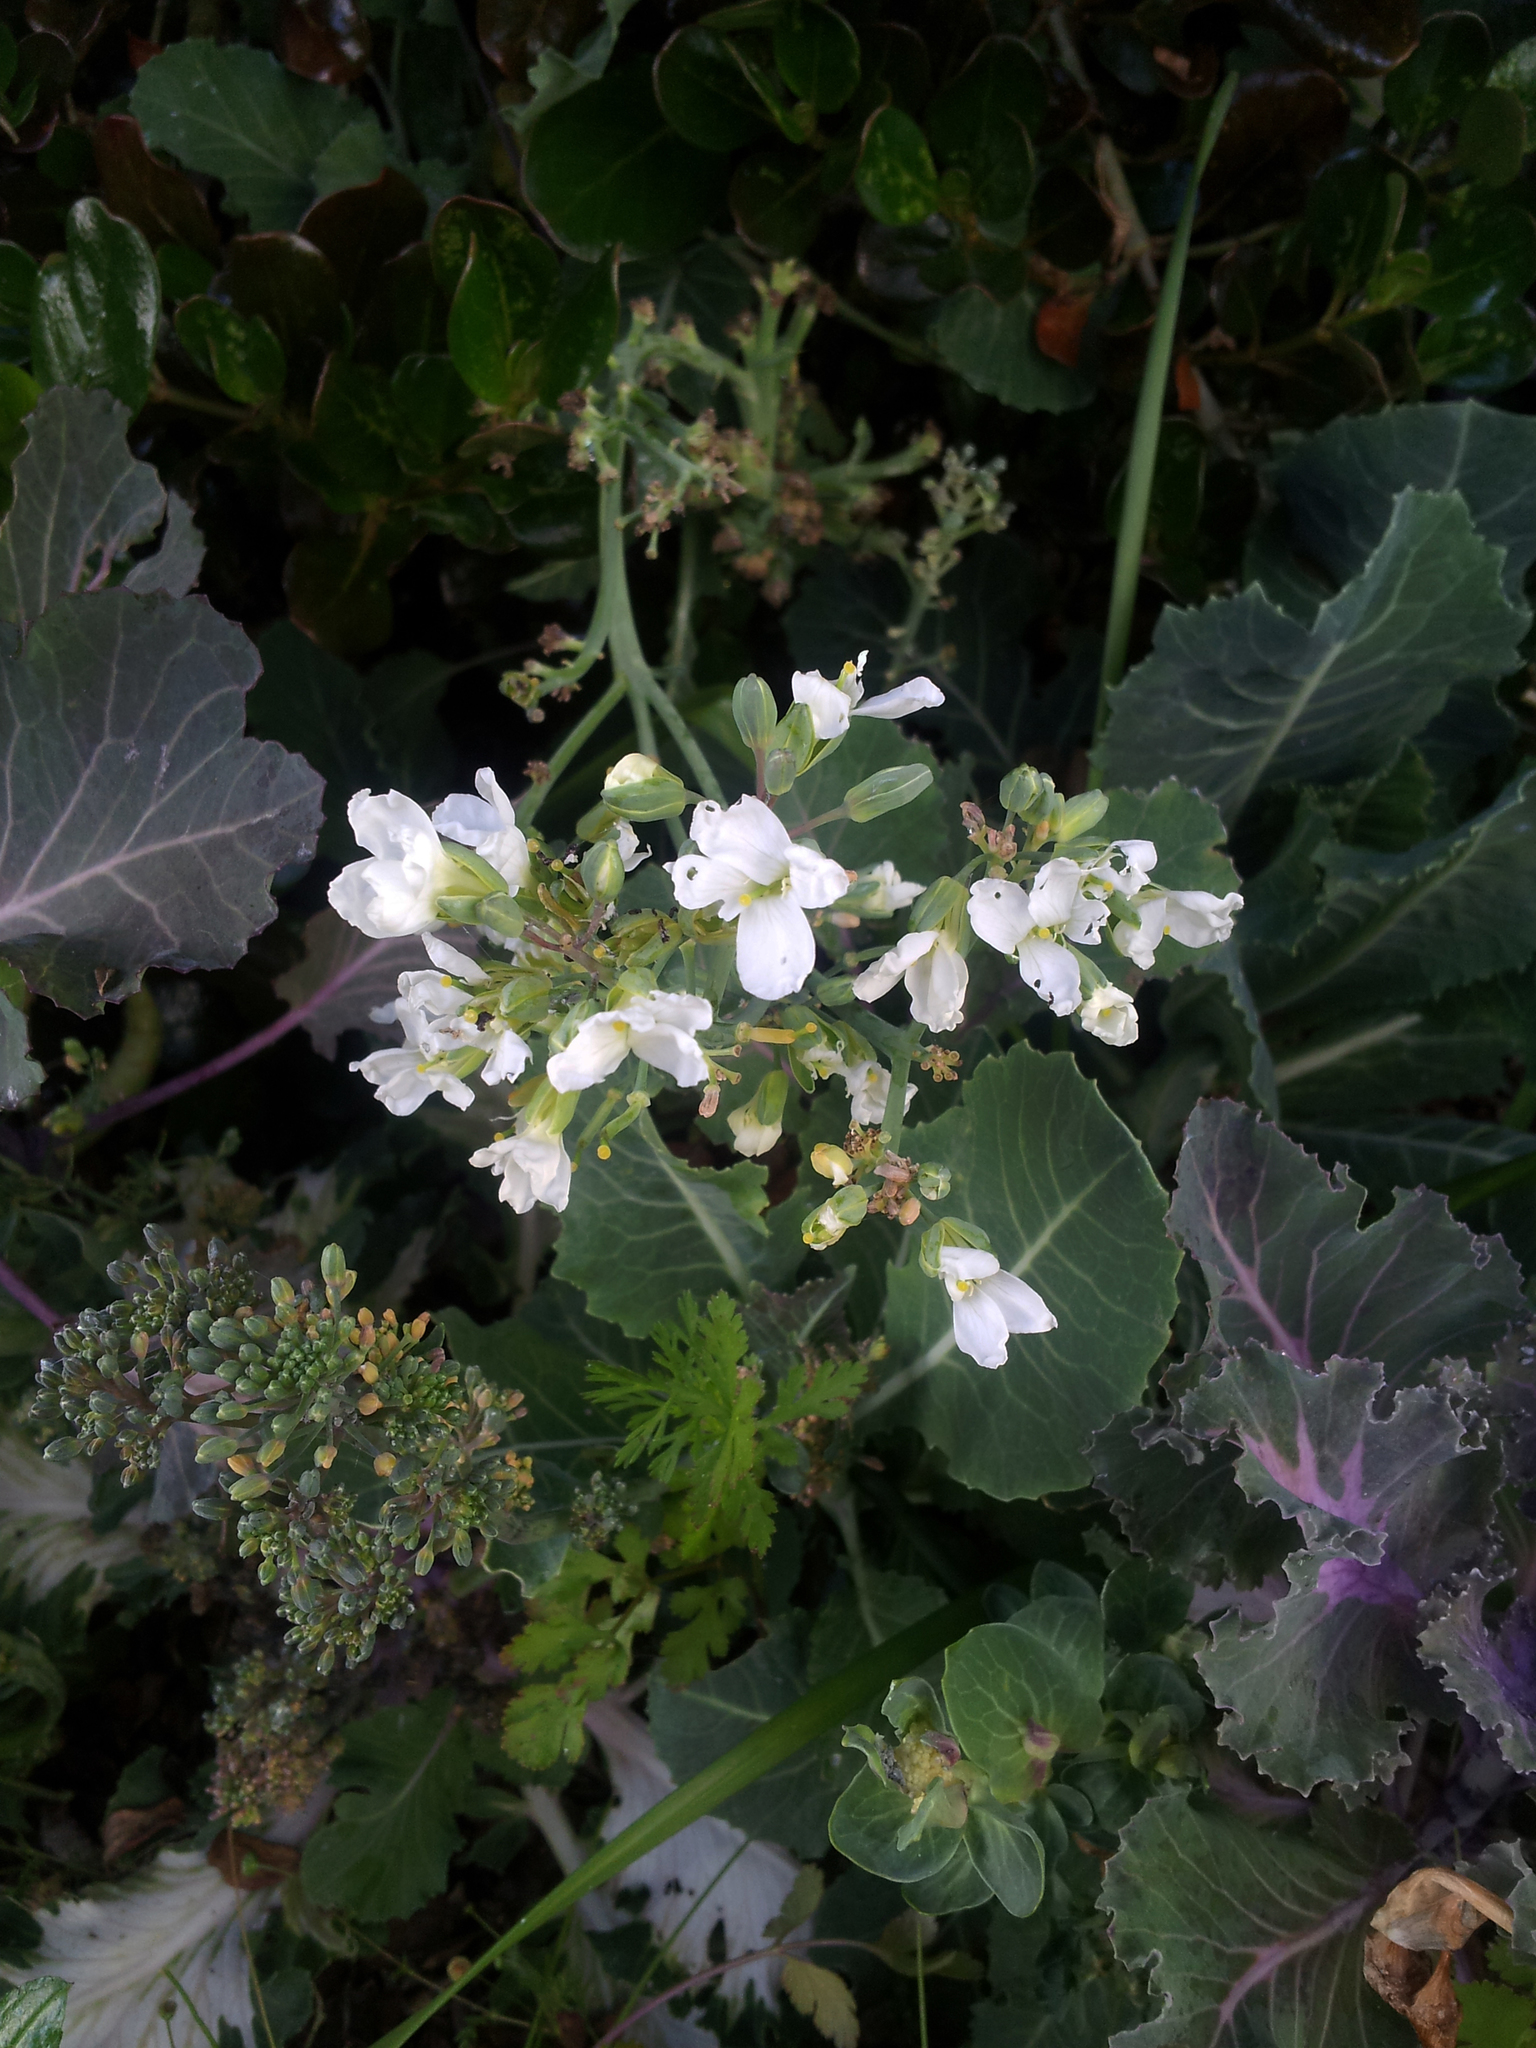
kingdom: Plantae
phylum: Tracheophyta
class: Magnoliopsida
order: Brassicales
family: Brassicaceae
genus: Brassica
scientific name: Brassica oleracea
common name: Cabbage
